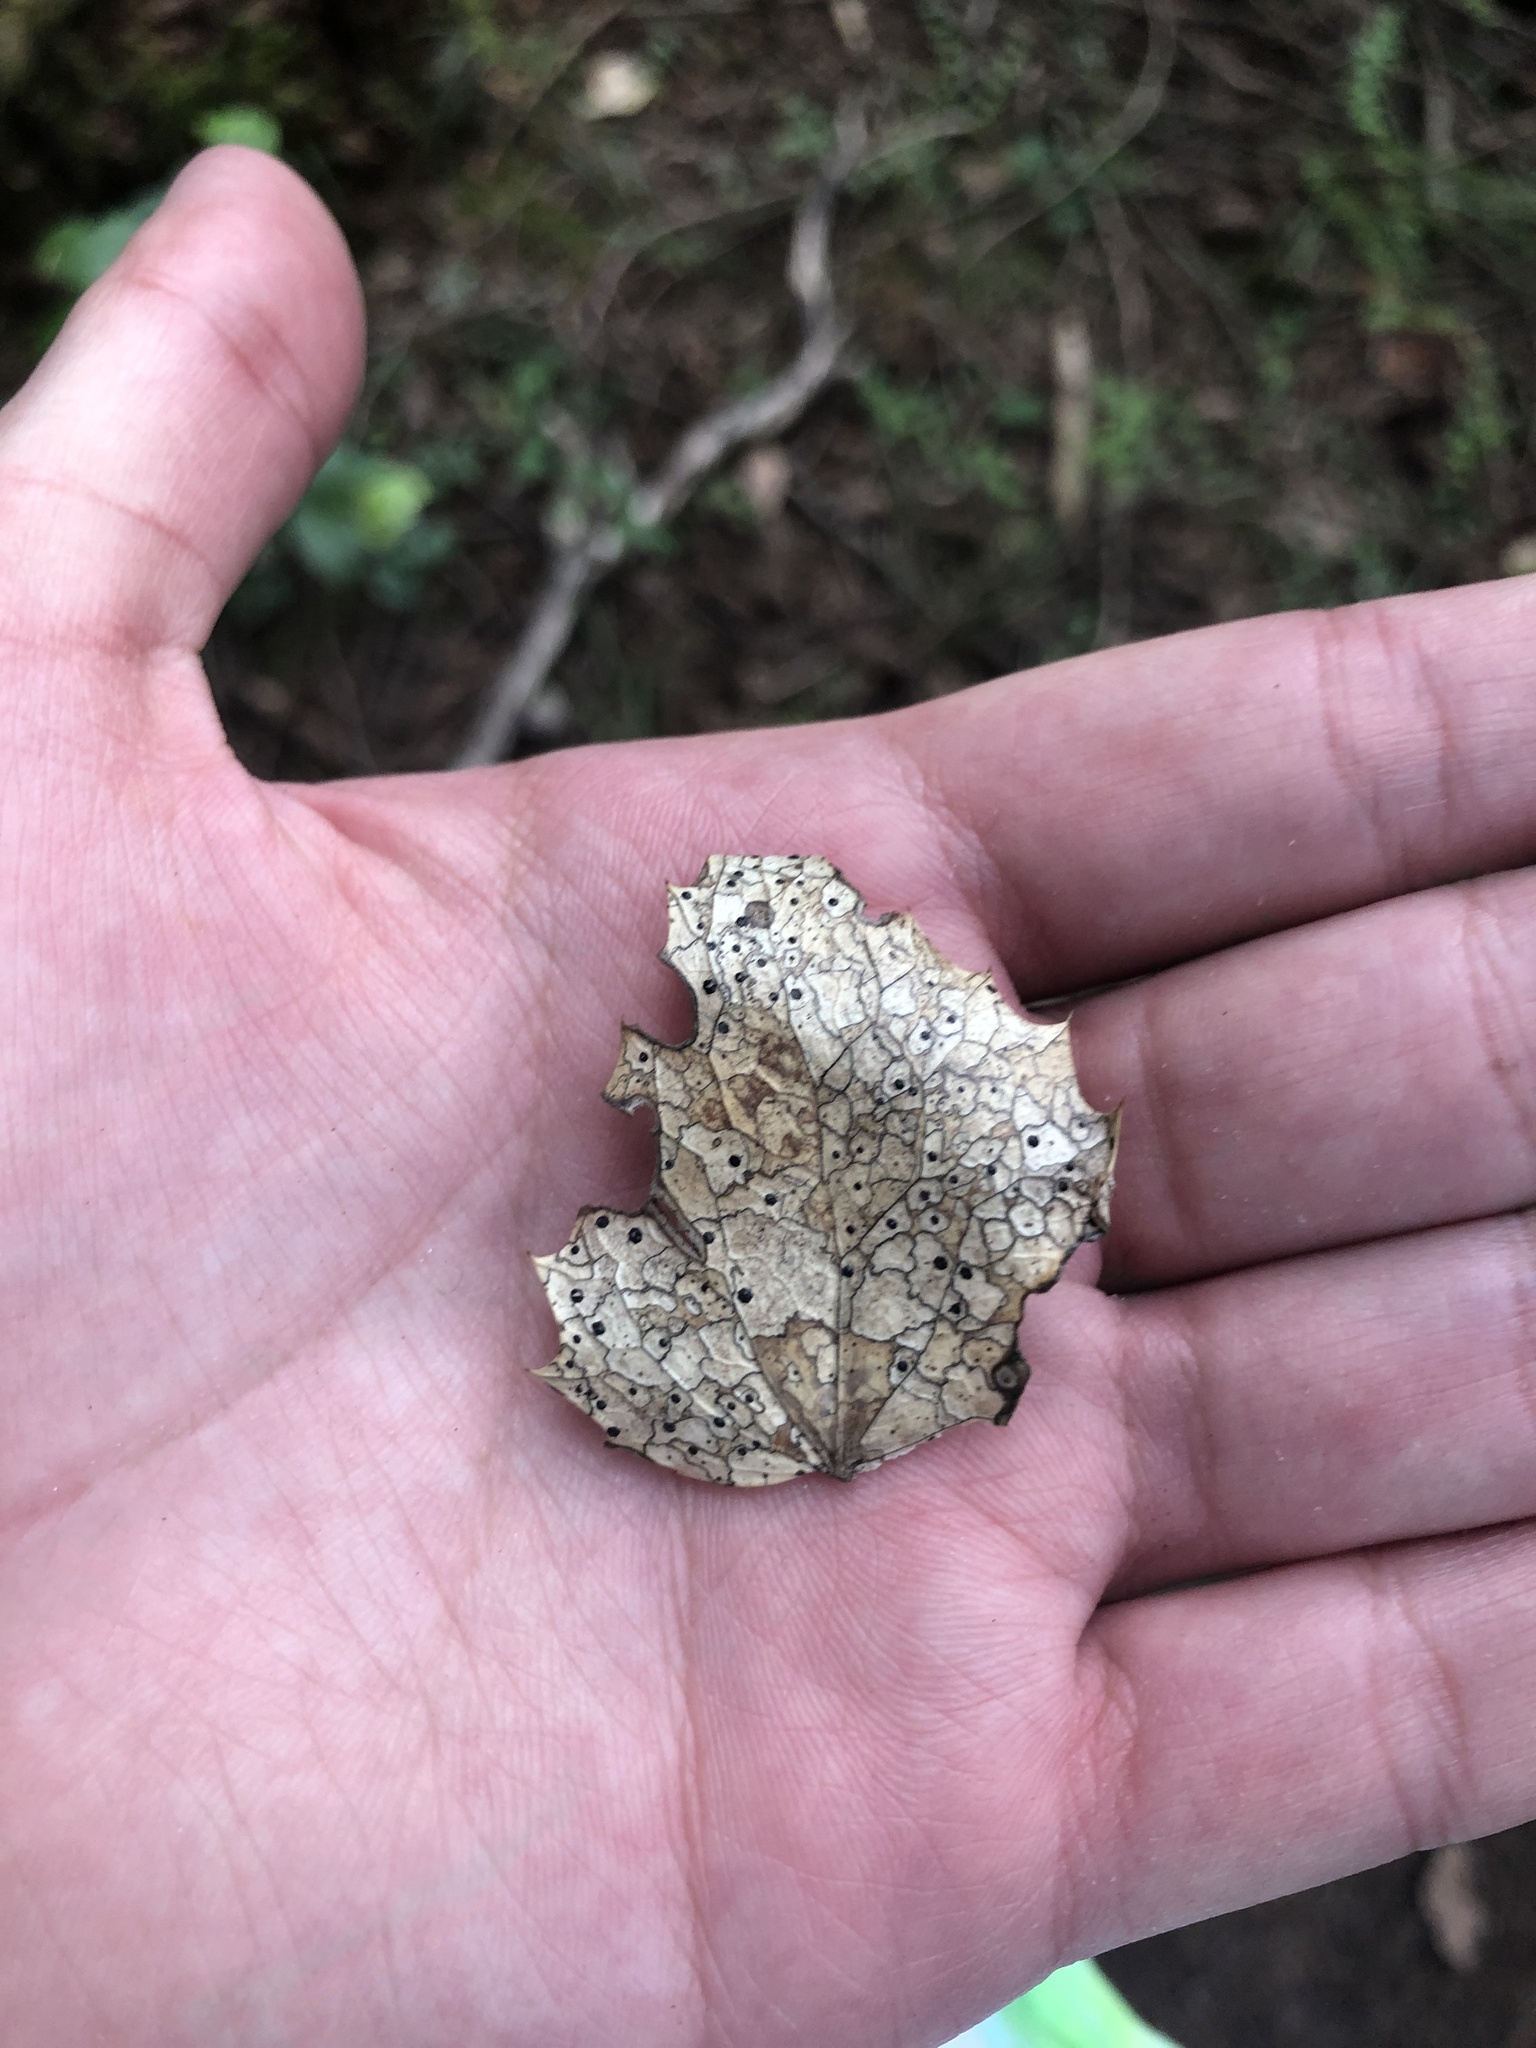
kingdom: Fungi
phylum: Ascomycota
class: Leotiomycetes
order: Rhytismatales
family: Rhytismataceae
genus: Coccomyces
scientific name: Coccomyces dentatus
